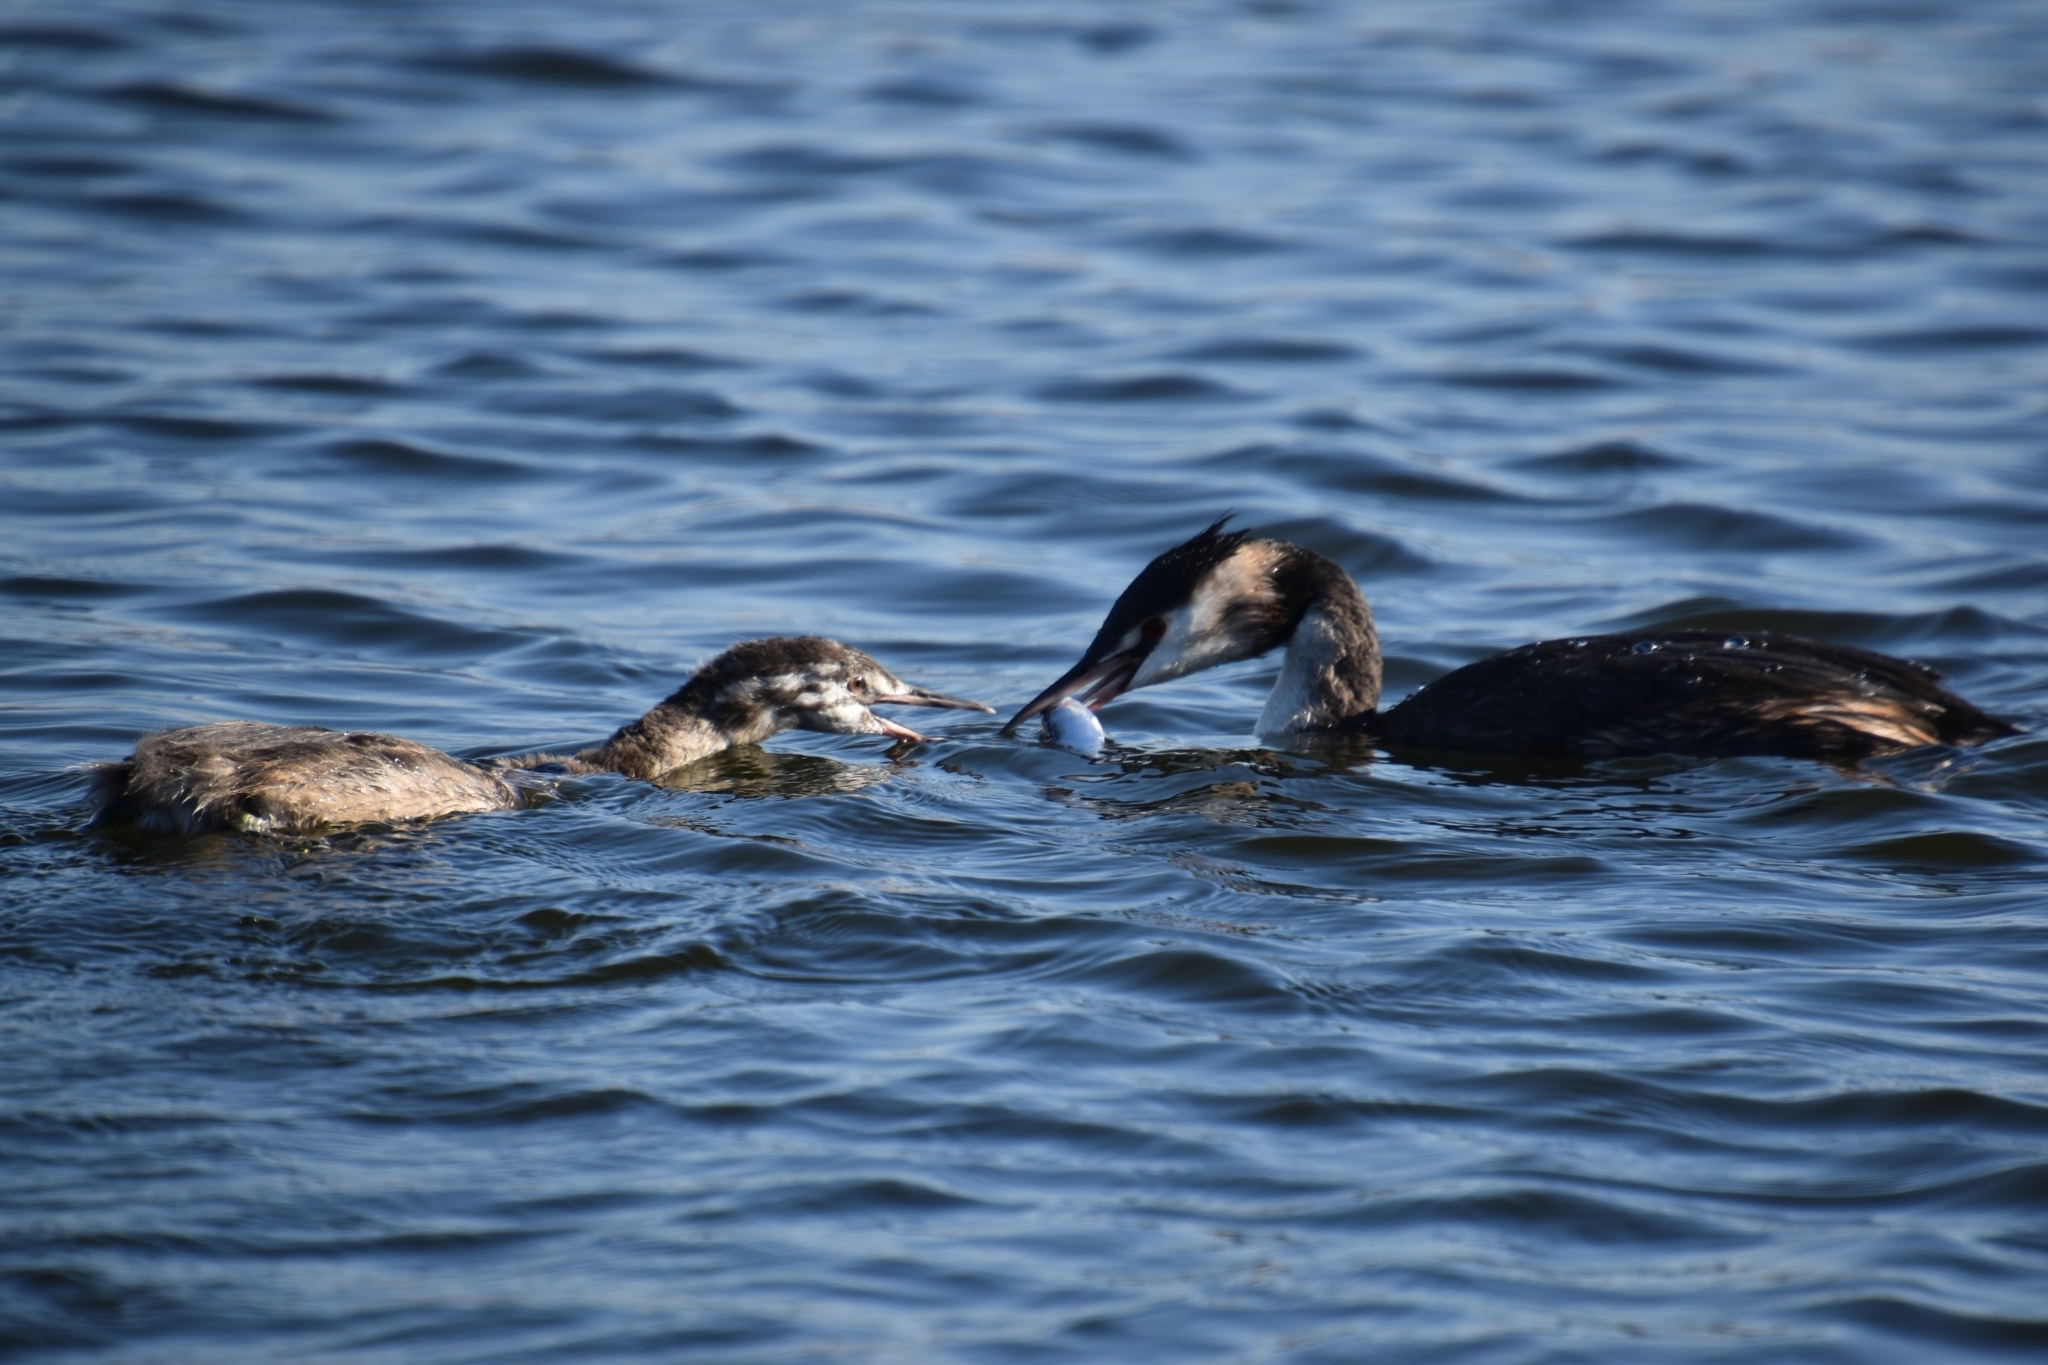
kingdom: Animalia
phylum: Chordata
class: Aves
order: Podicipediformes
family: Podicipedidae
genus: Podiceps
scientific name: Podiceps cristatus
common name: Great crested grebe
